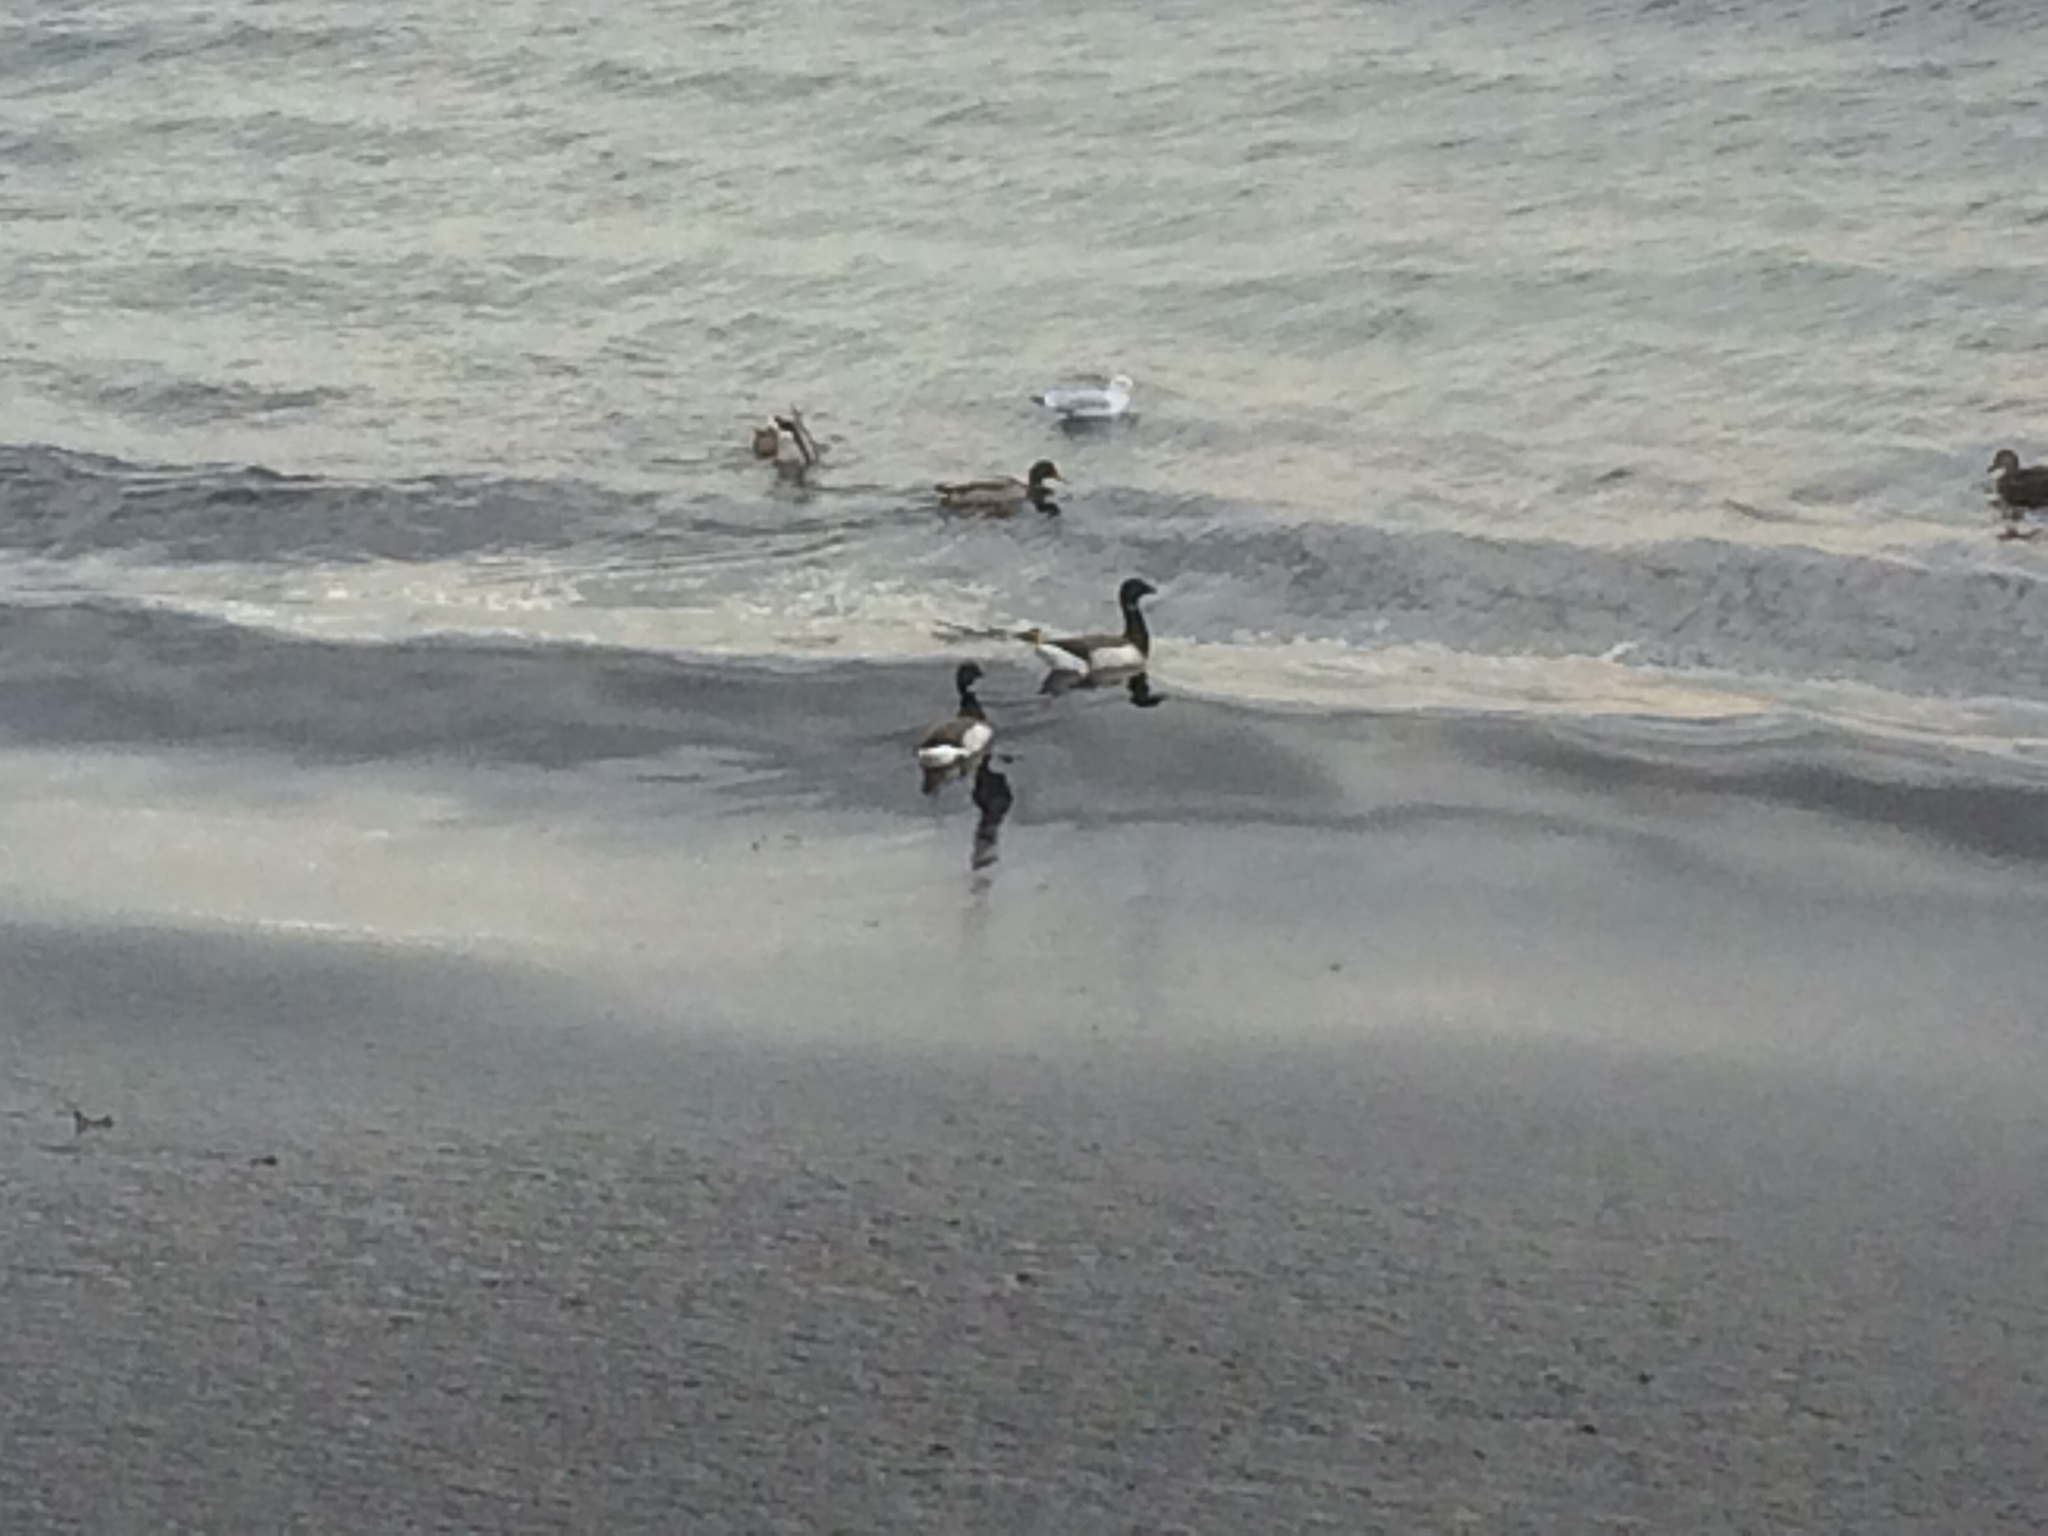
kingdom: Animalia
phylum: Chordata
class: Aves
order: Anseriformes
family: Anatidae
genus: Branta
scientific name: Branta bernicla
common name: Brant goose
